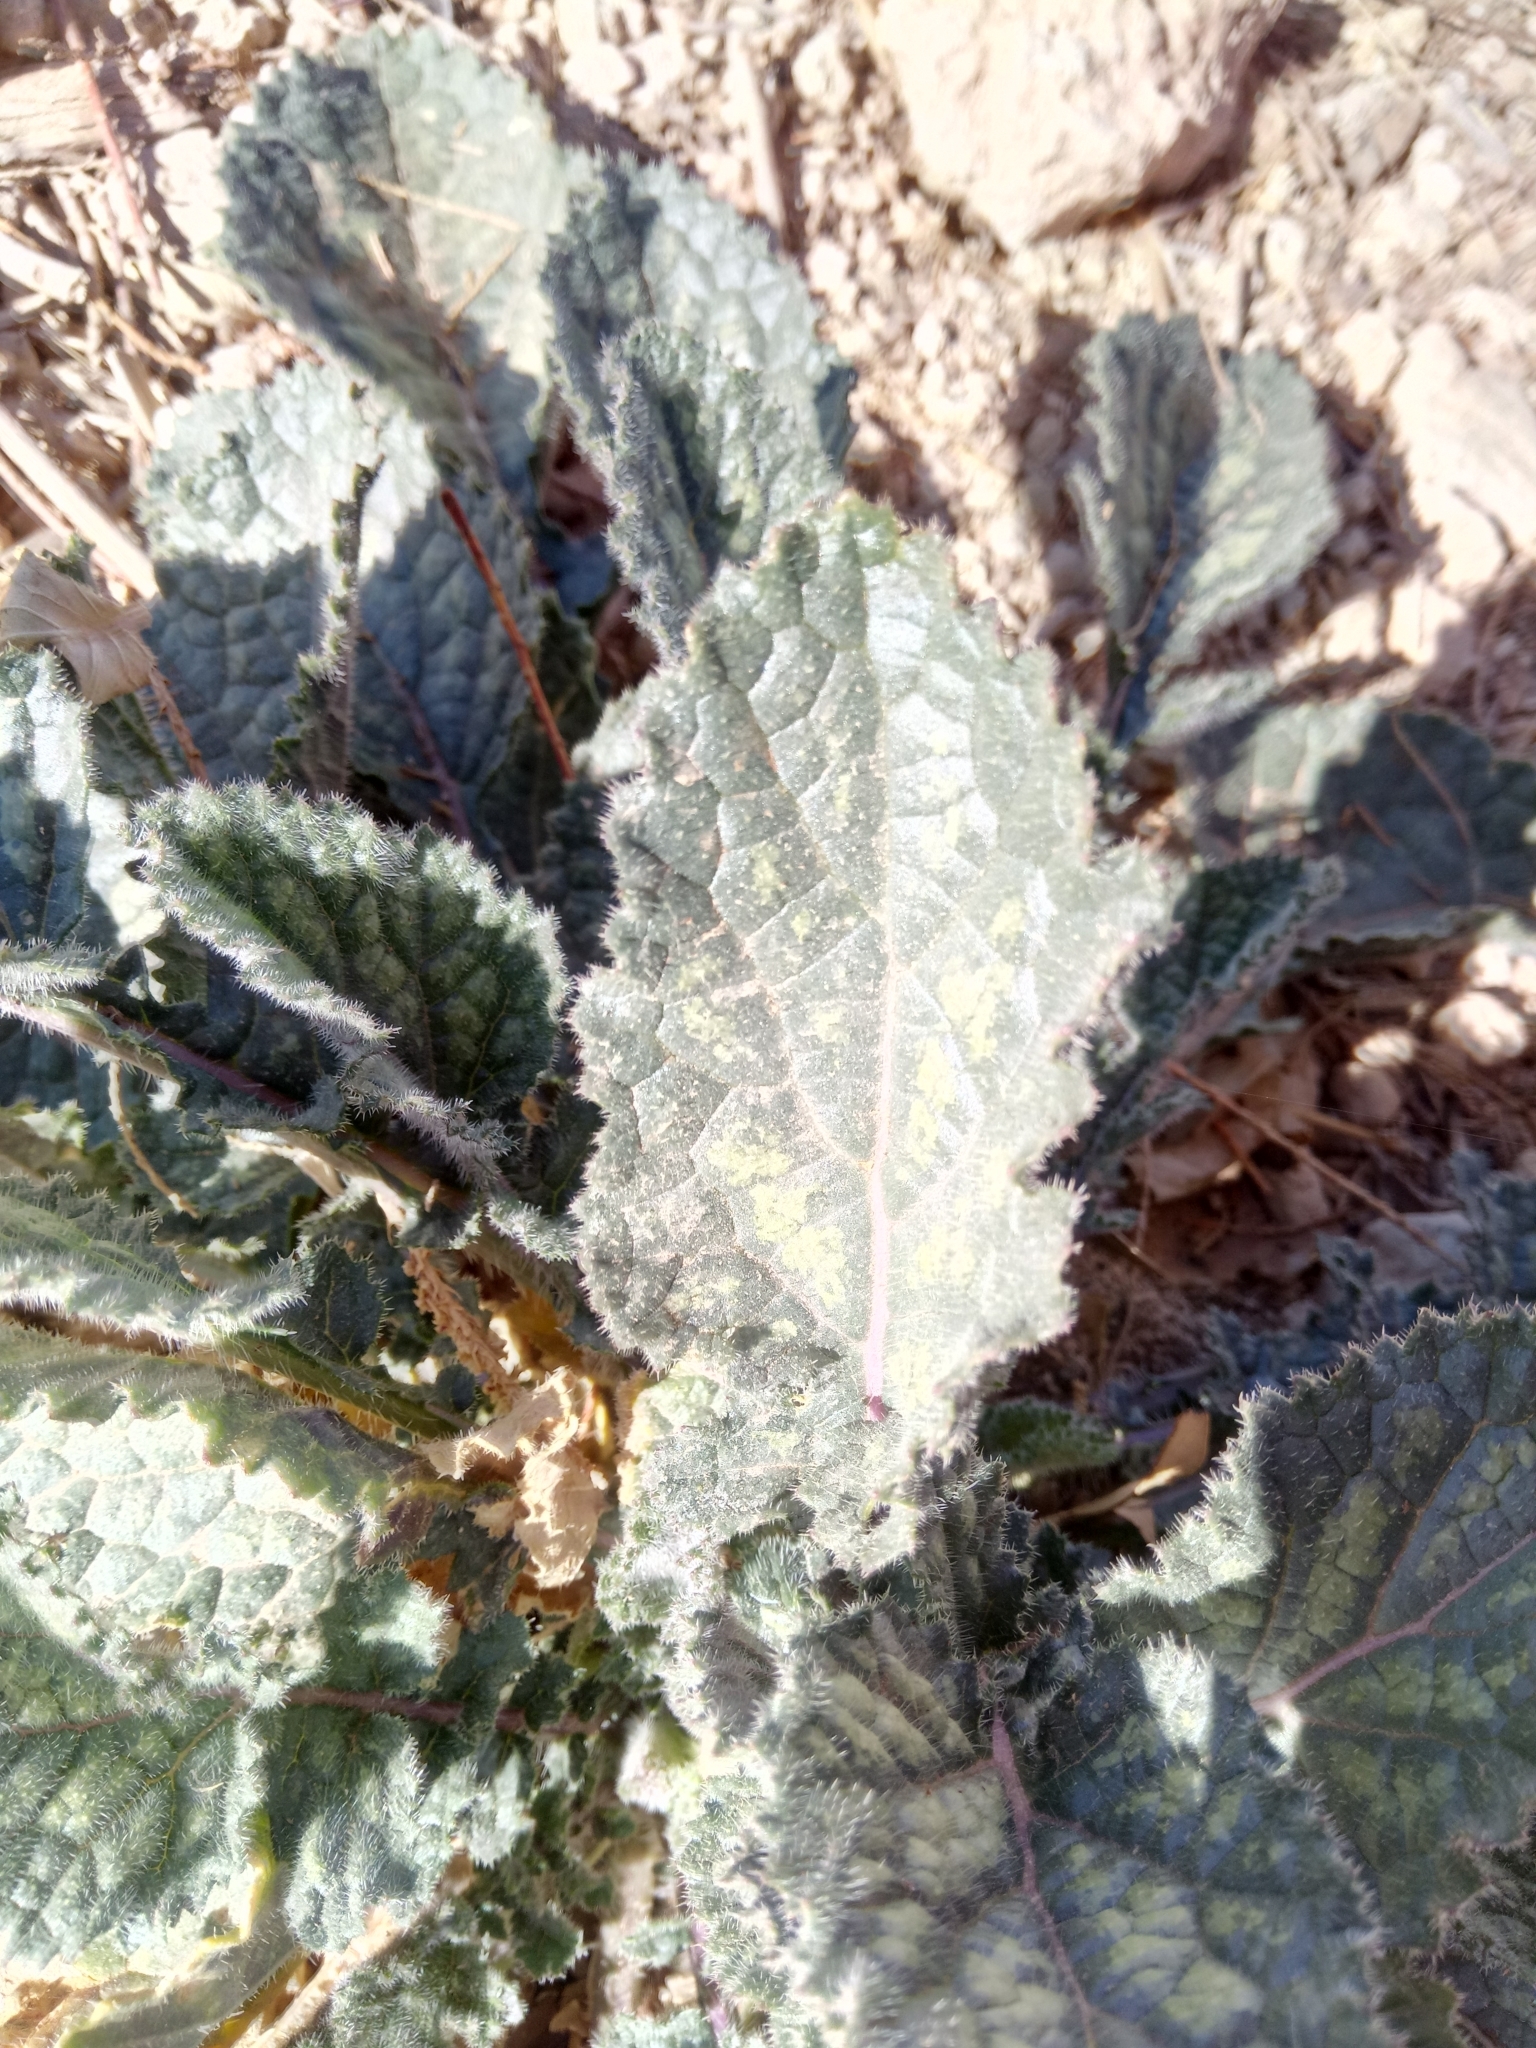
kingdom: Plantae
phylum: Tracheophyta
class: Magnoliopsida
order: Brassicales
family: Brassicaceae
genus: Crambe
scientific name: Crambe kralikii
